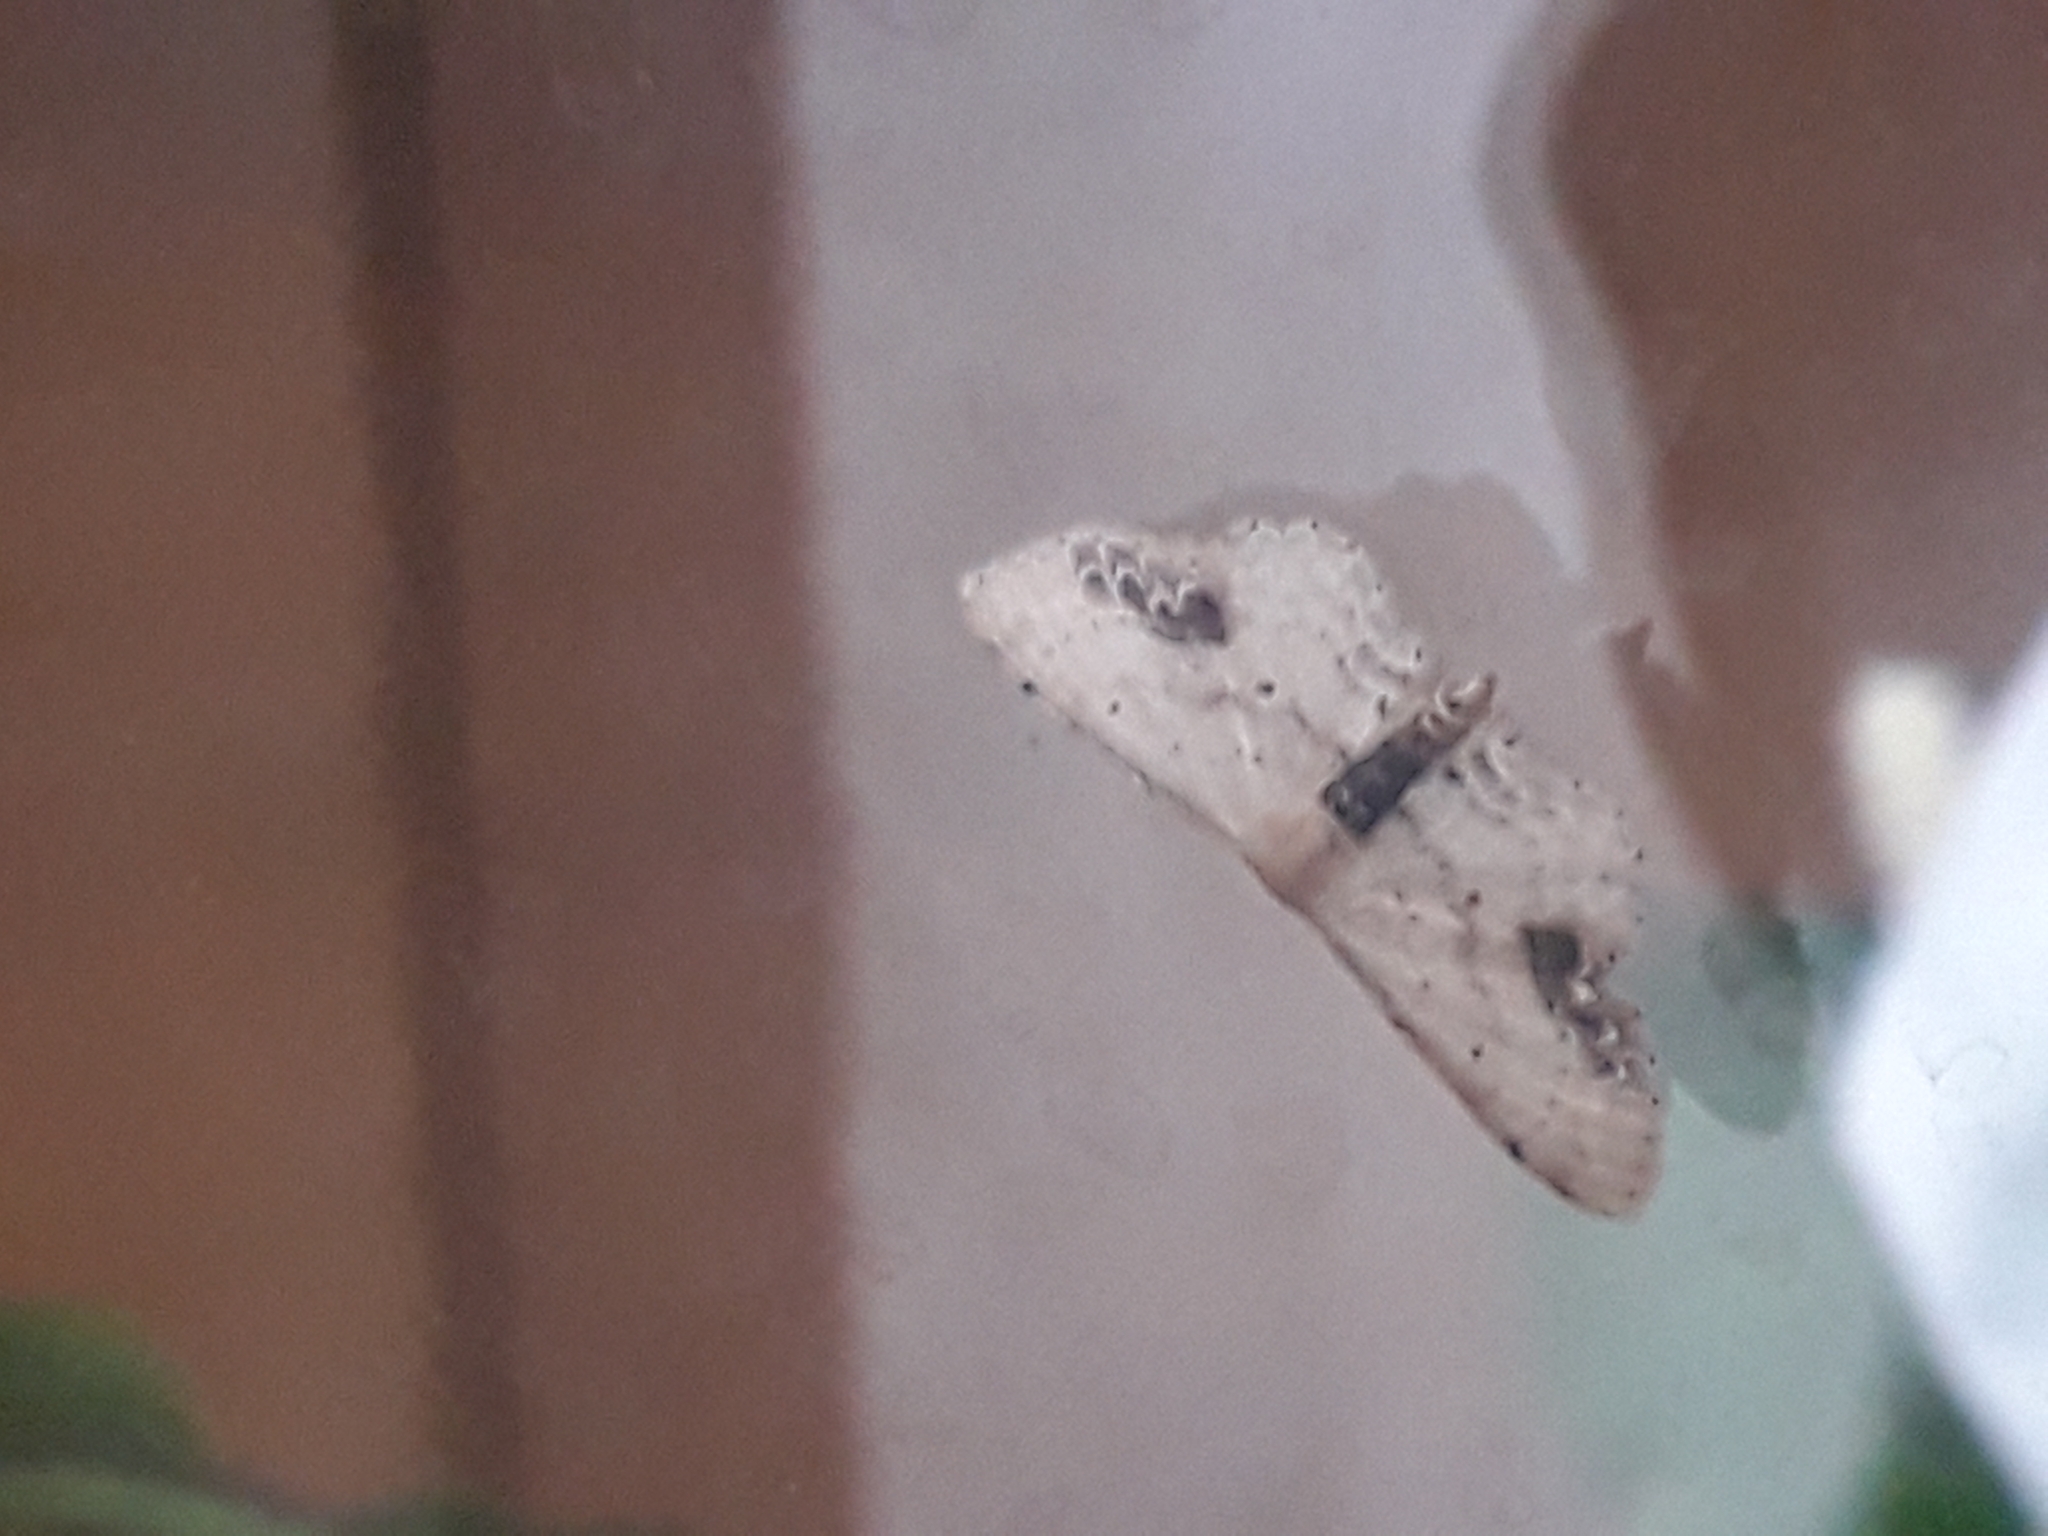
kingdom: Animalia
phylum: Arthropoda
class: Insecta
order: Lepidoptera
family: Geometridae
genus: Idaea
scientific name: Idaea dimidiata
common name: Single-dotted wave
